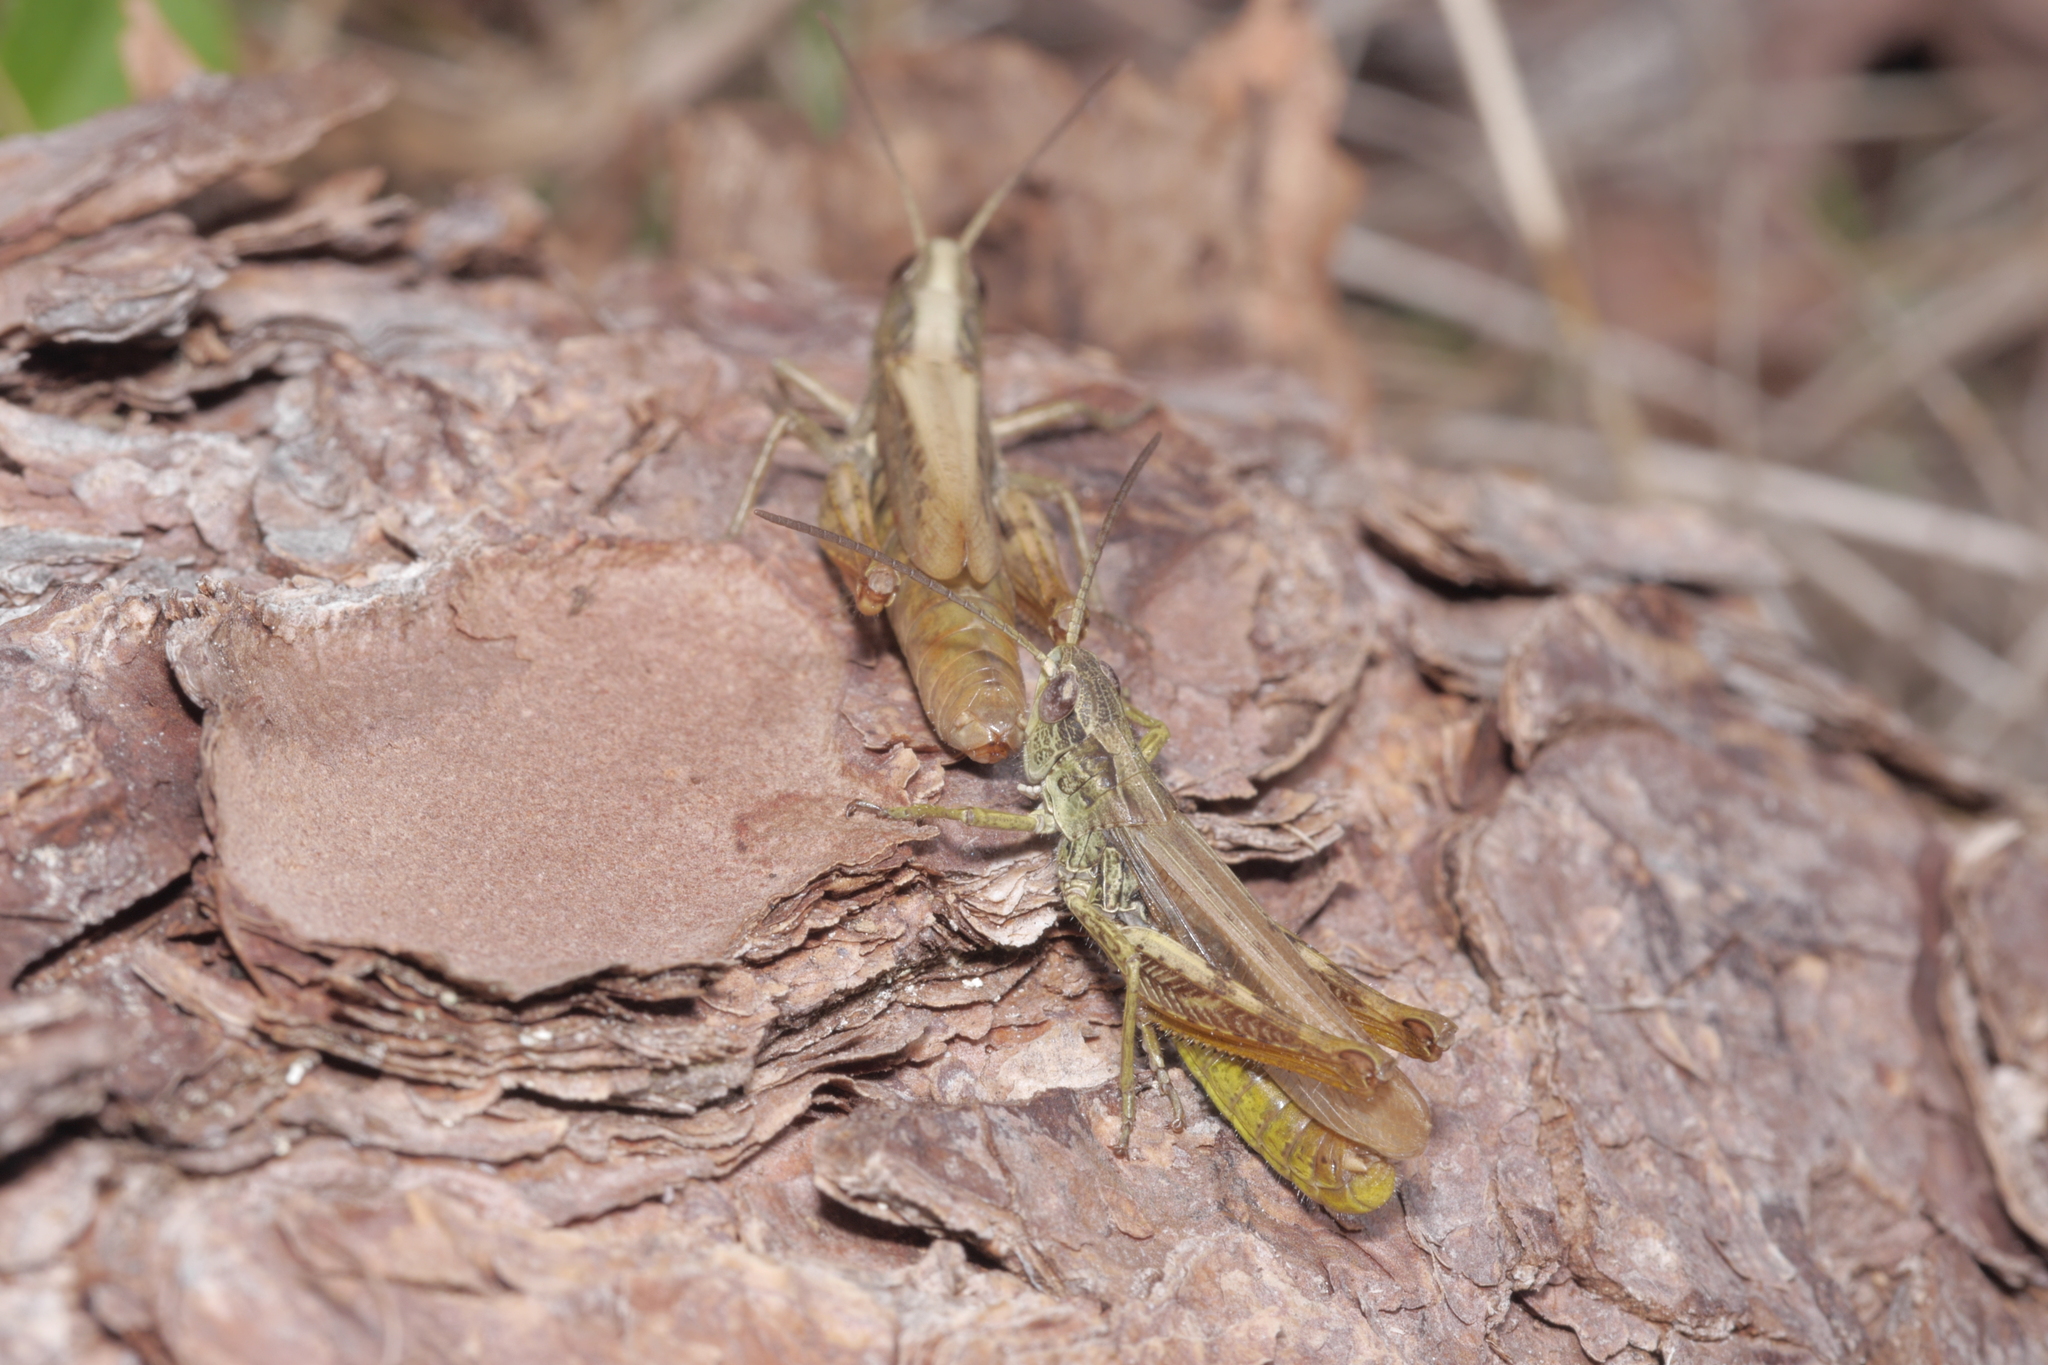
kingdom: Animalia
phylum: Arthropoda
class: Insecta
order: Orthoptera
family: Acrididae
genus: Chorthippus
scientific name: Chorthippus apricarius
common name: Upland field grasshopper
